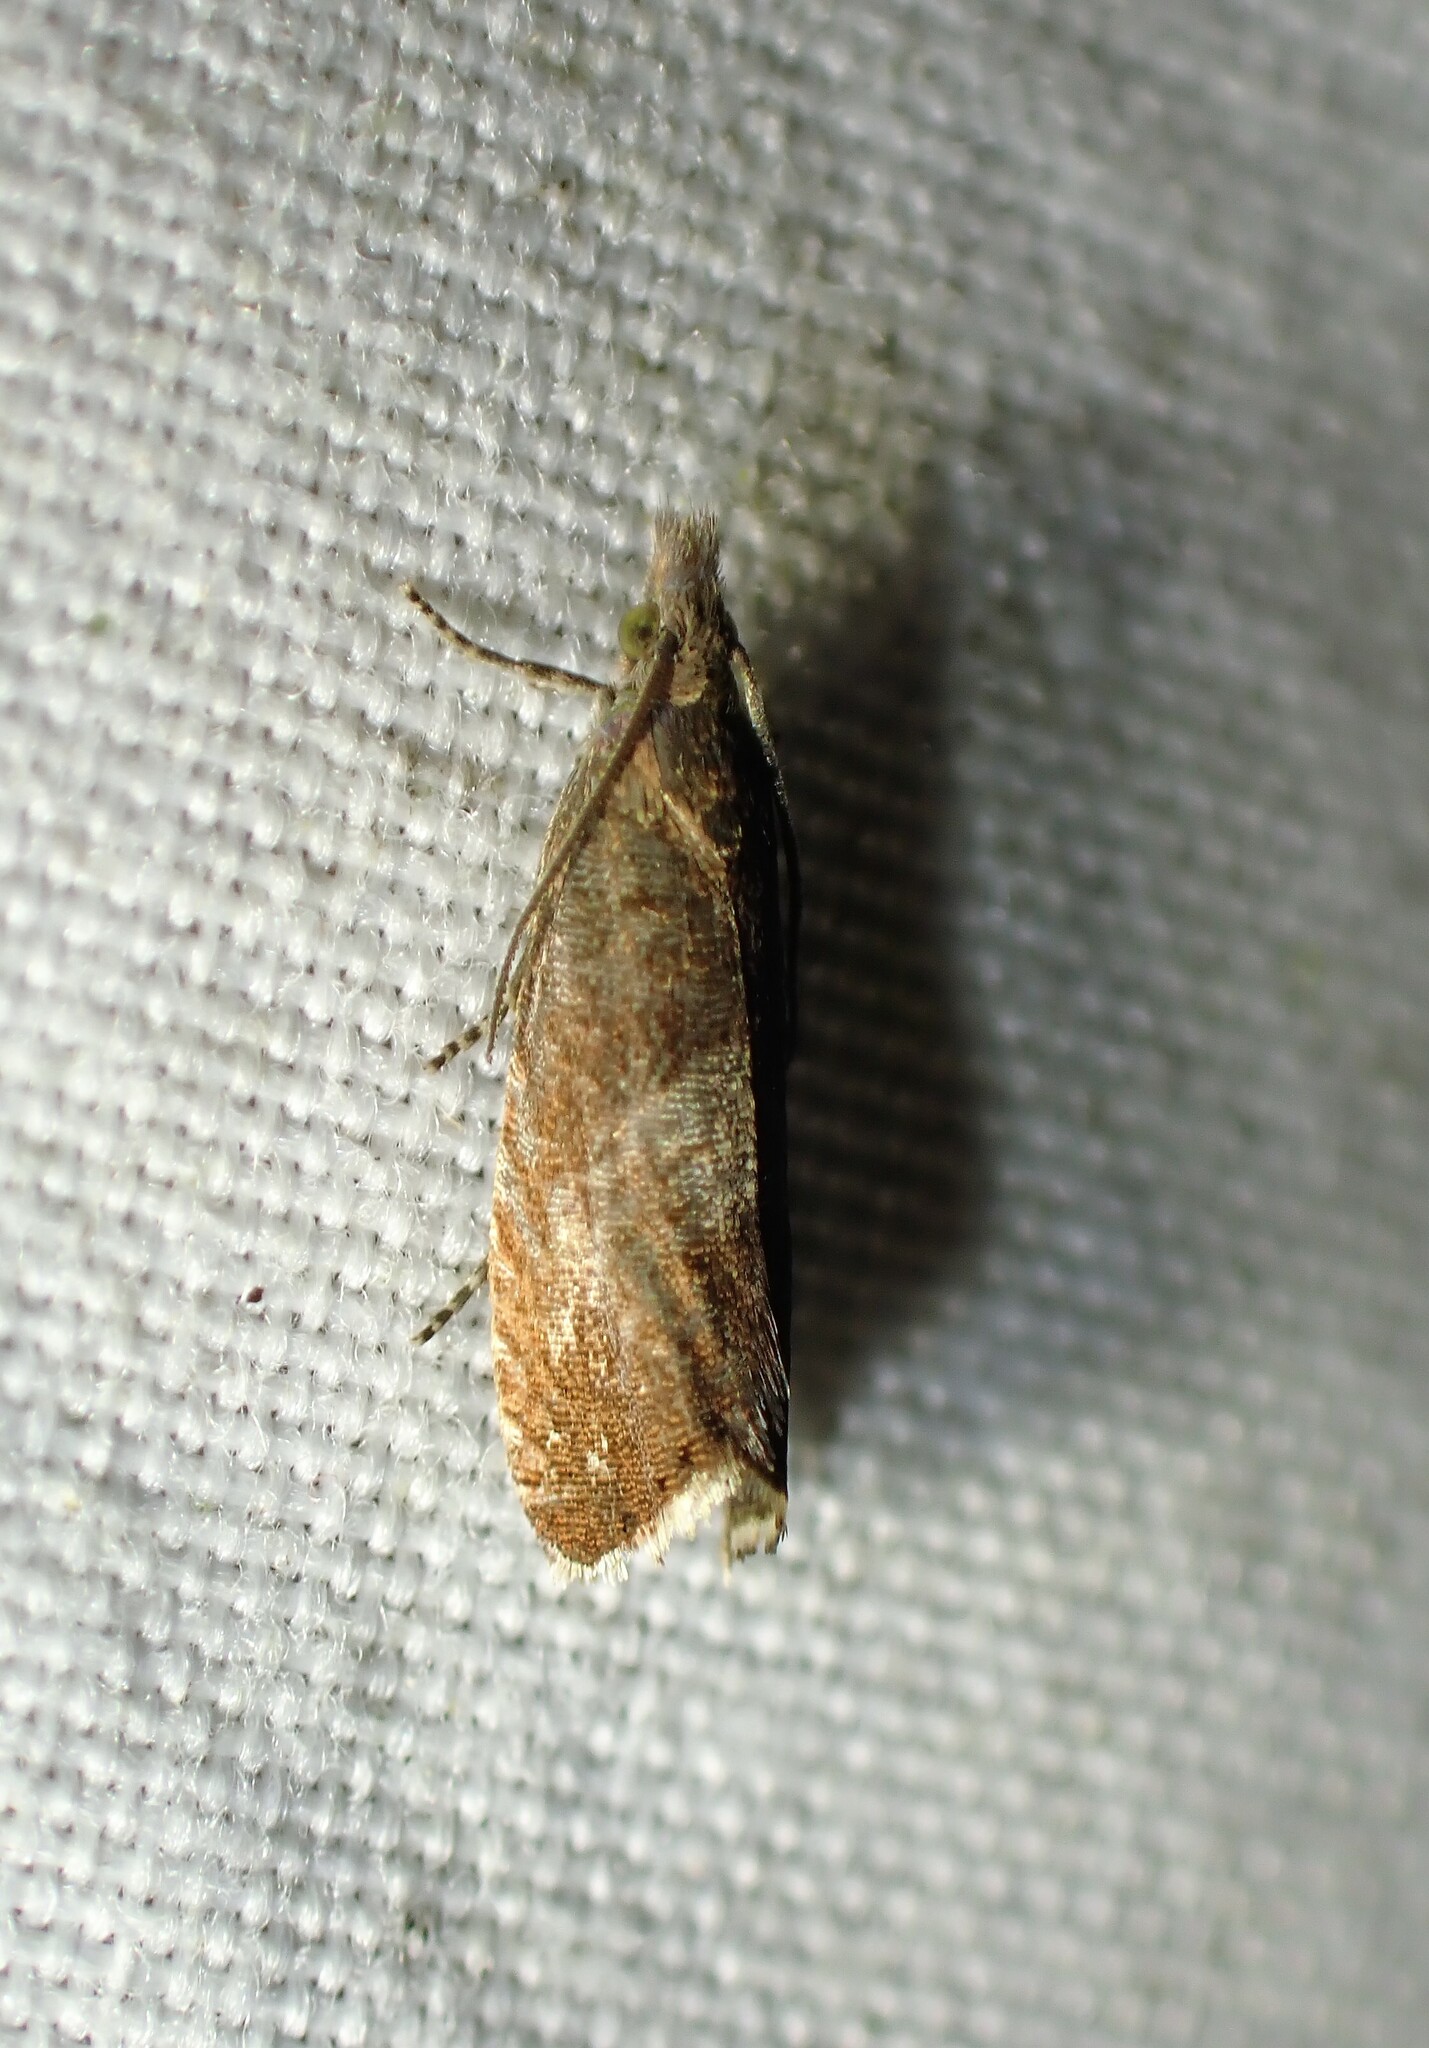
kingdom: Animalia
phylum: Arthropoda
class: Insecta
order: Lepidoptera
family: Tortricidae
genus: Dichrorampha
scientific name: Dichrorampha acuminatana
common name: Sharp-winged drill
